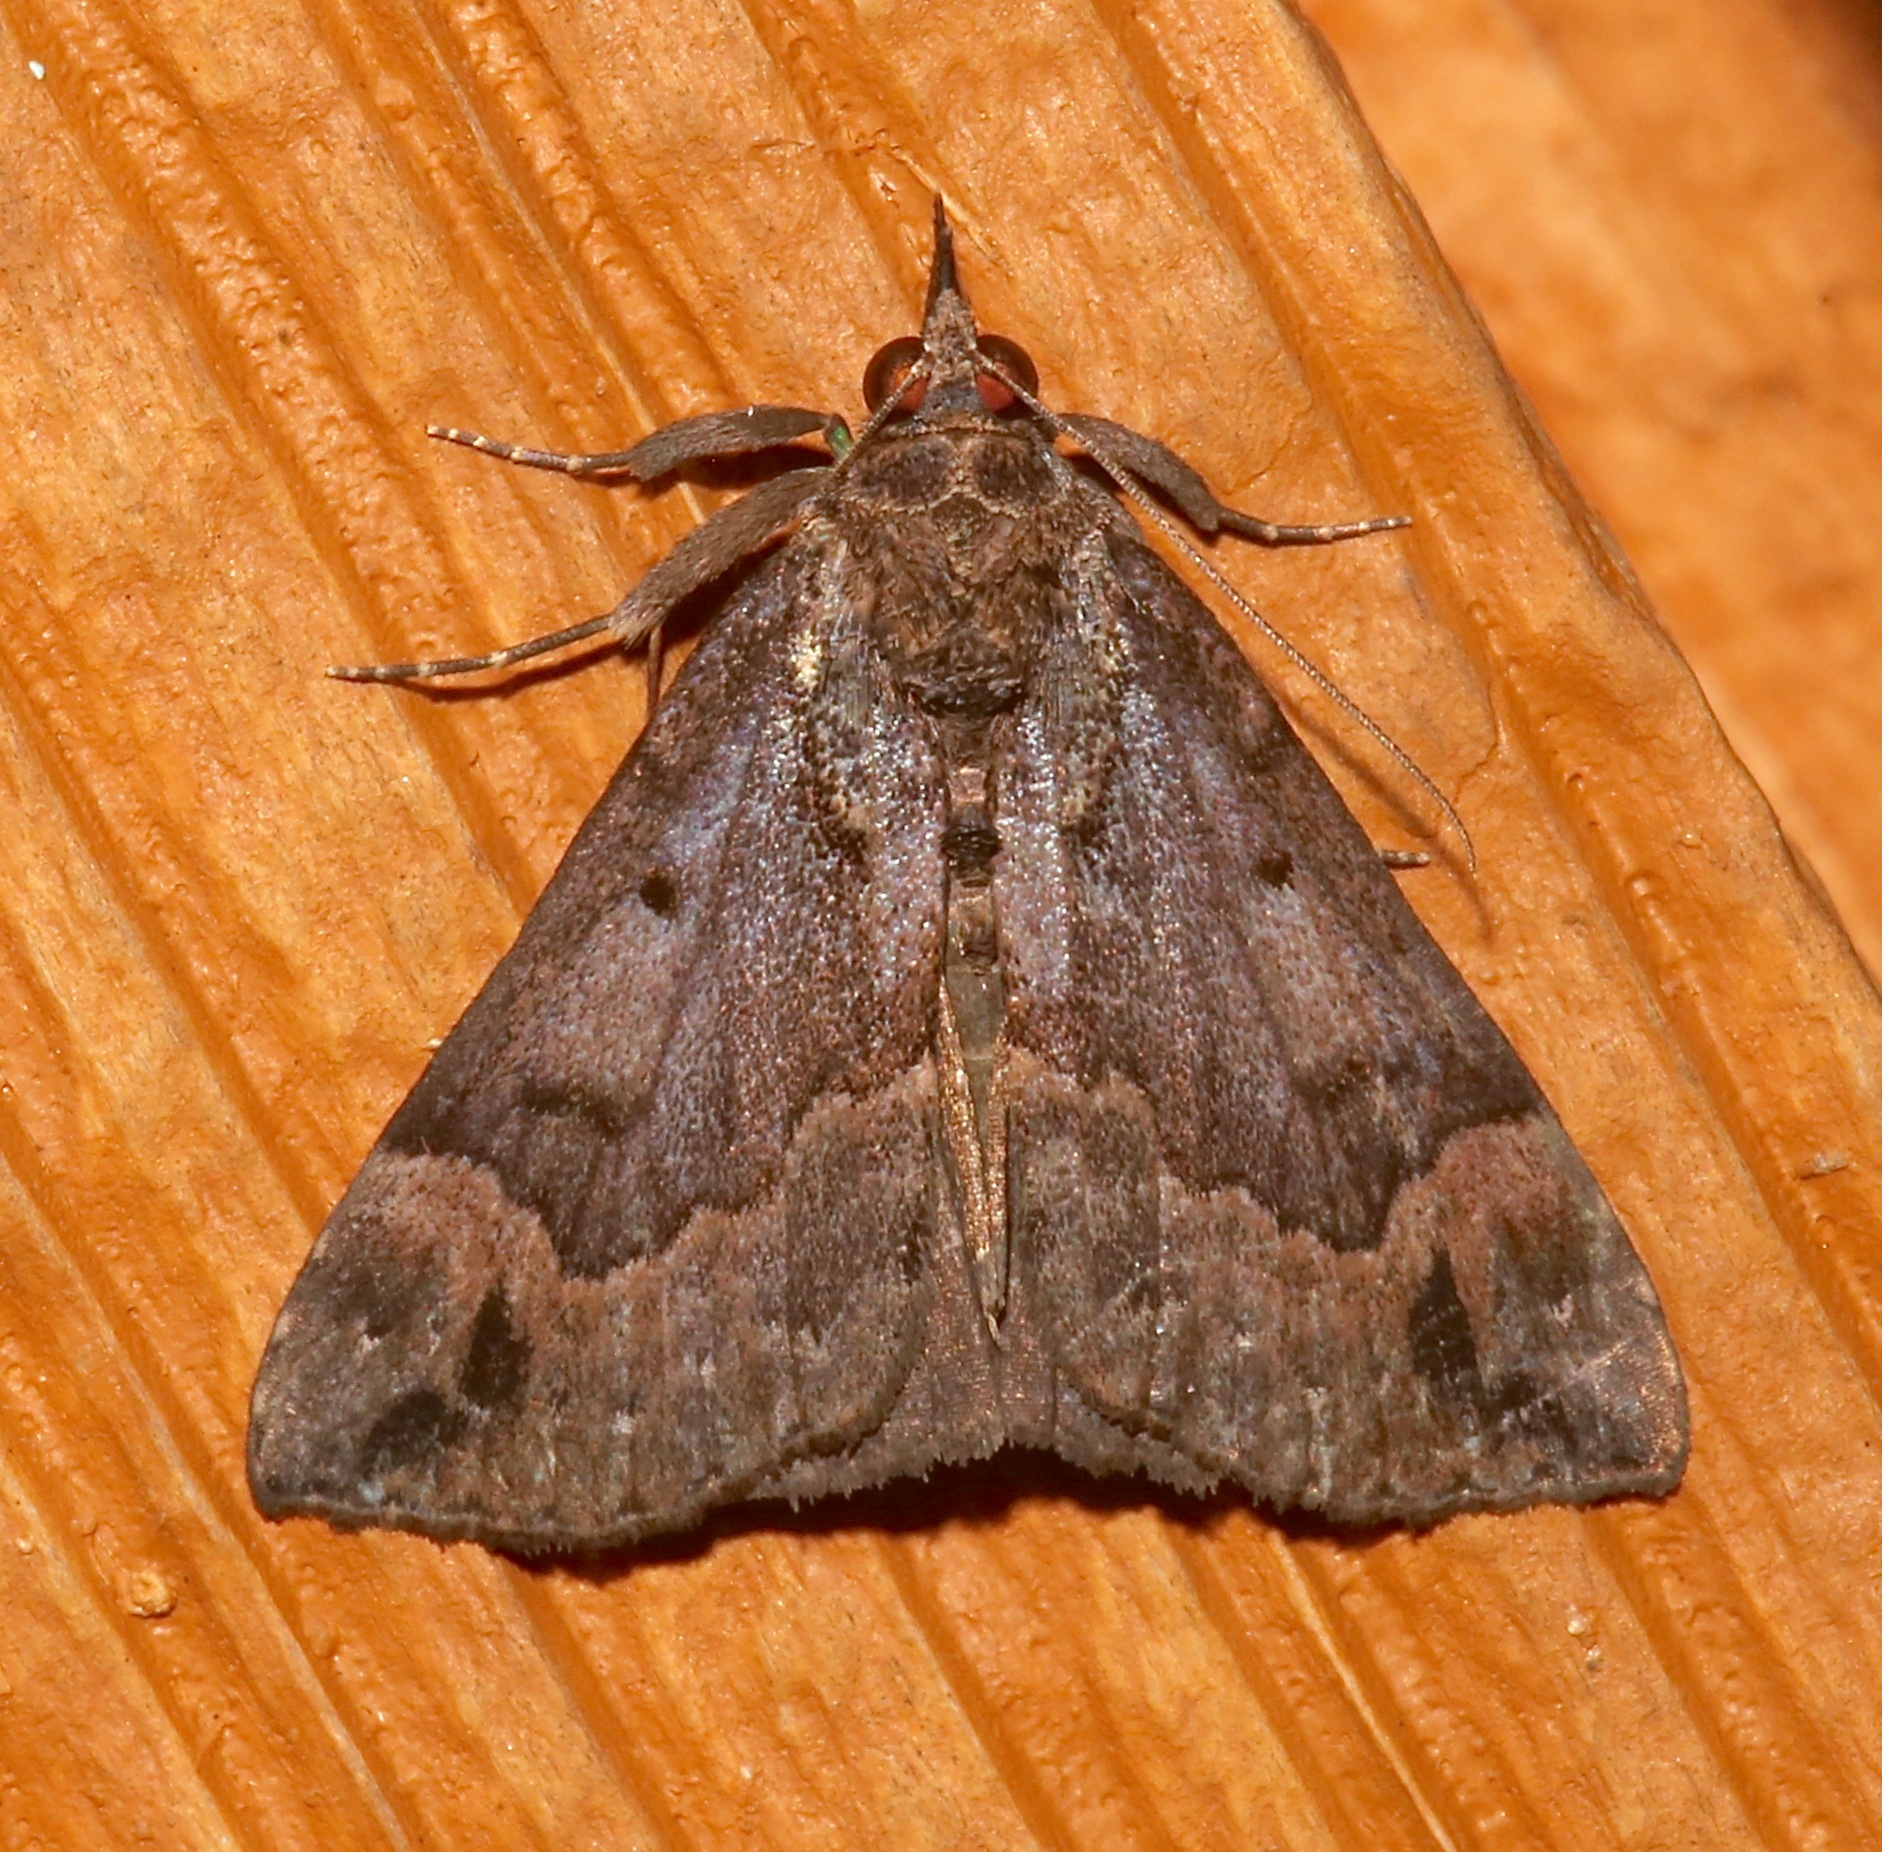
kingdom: Animalia
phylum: Arthropoda
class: Insecta
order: Lepidoptera
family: Erebidae
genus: Hypena
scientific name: Hypena palparia
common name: Mottled bomolocha moth
